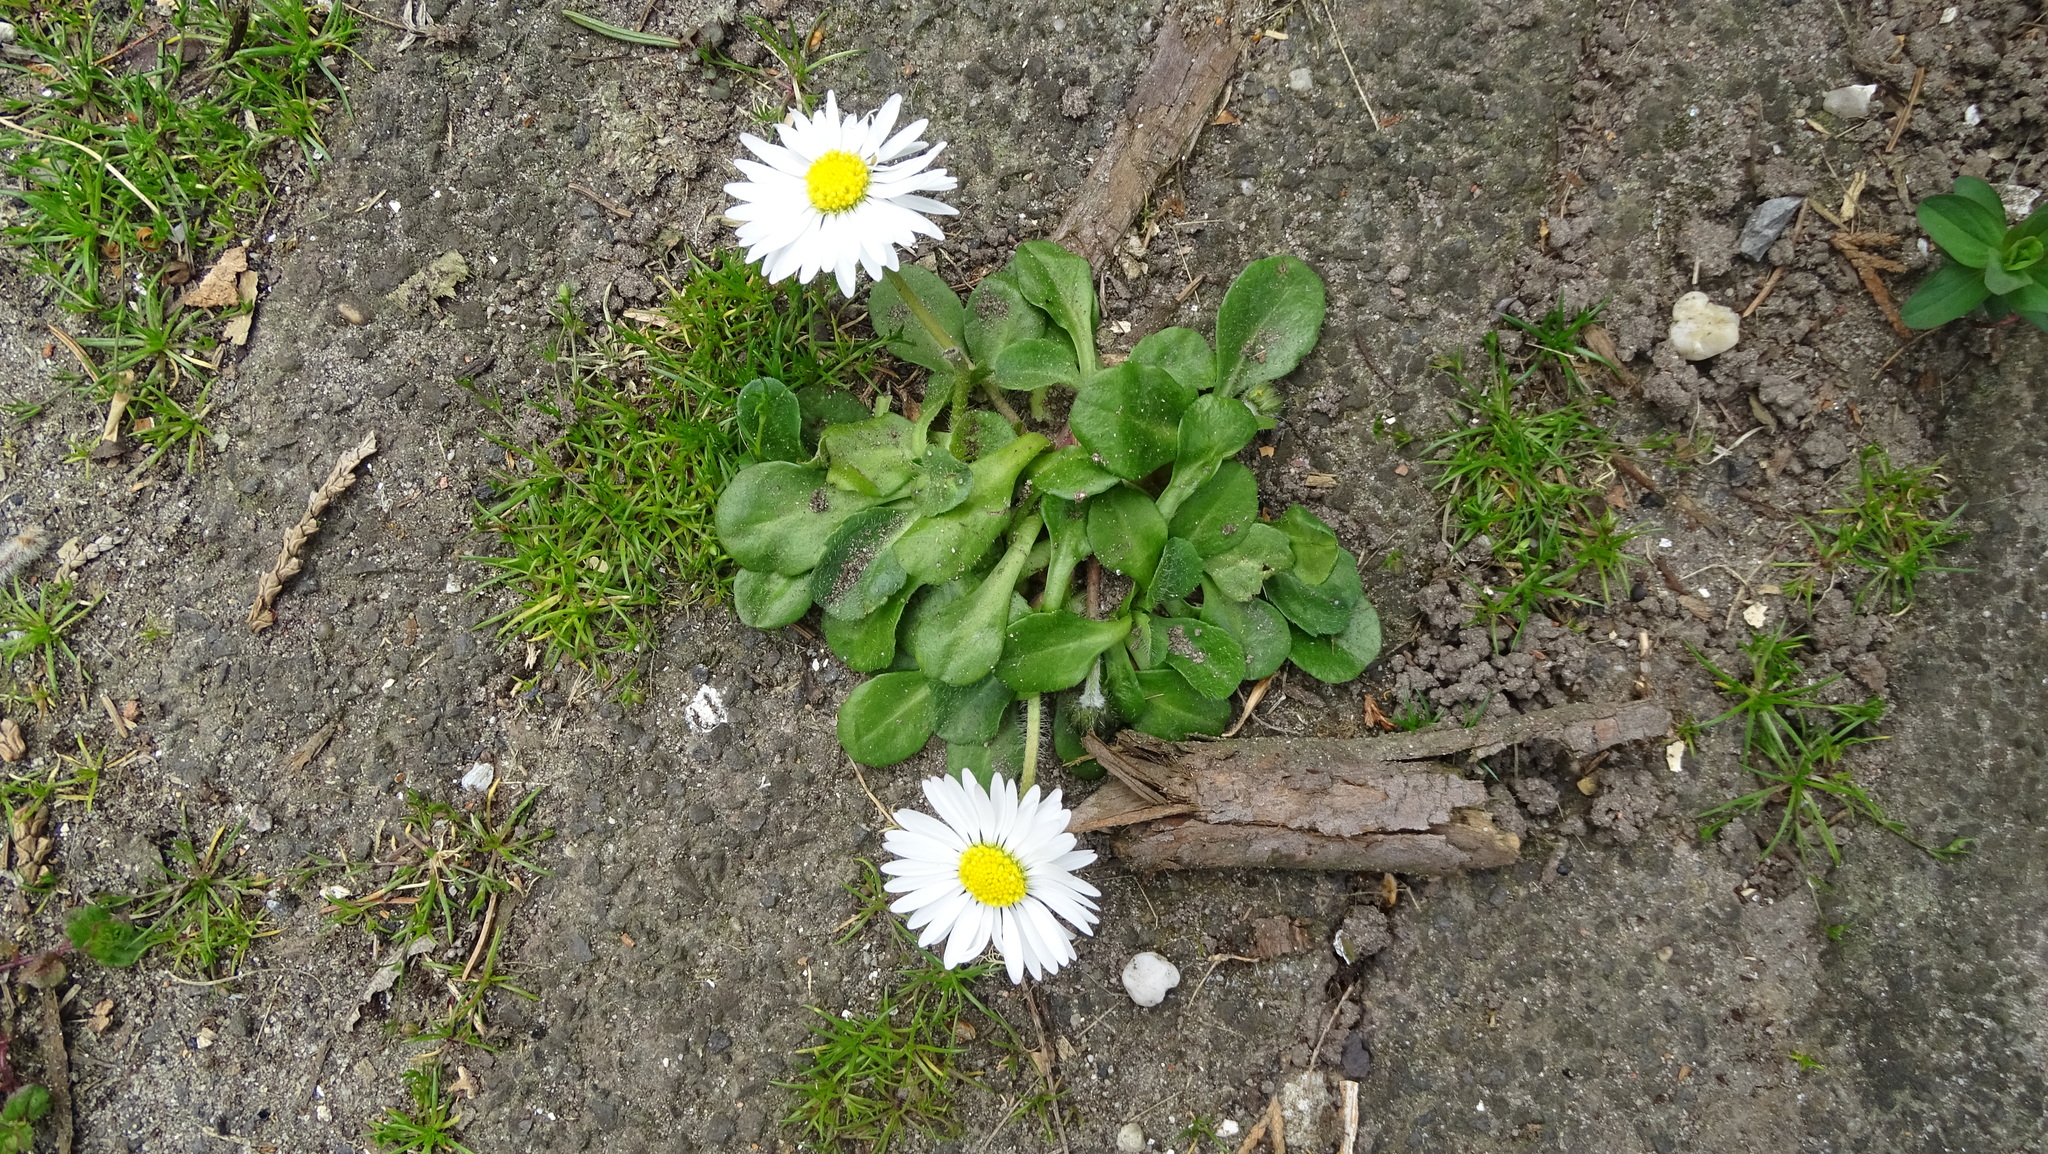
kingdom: Plantae
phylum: Tracheophyta
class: Magnoliopsida
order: Asterales
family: Asteraceae
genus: Bellis
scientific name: Bellis perennis
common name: Lawndaisy
